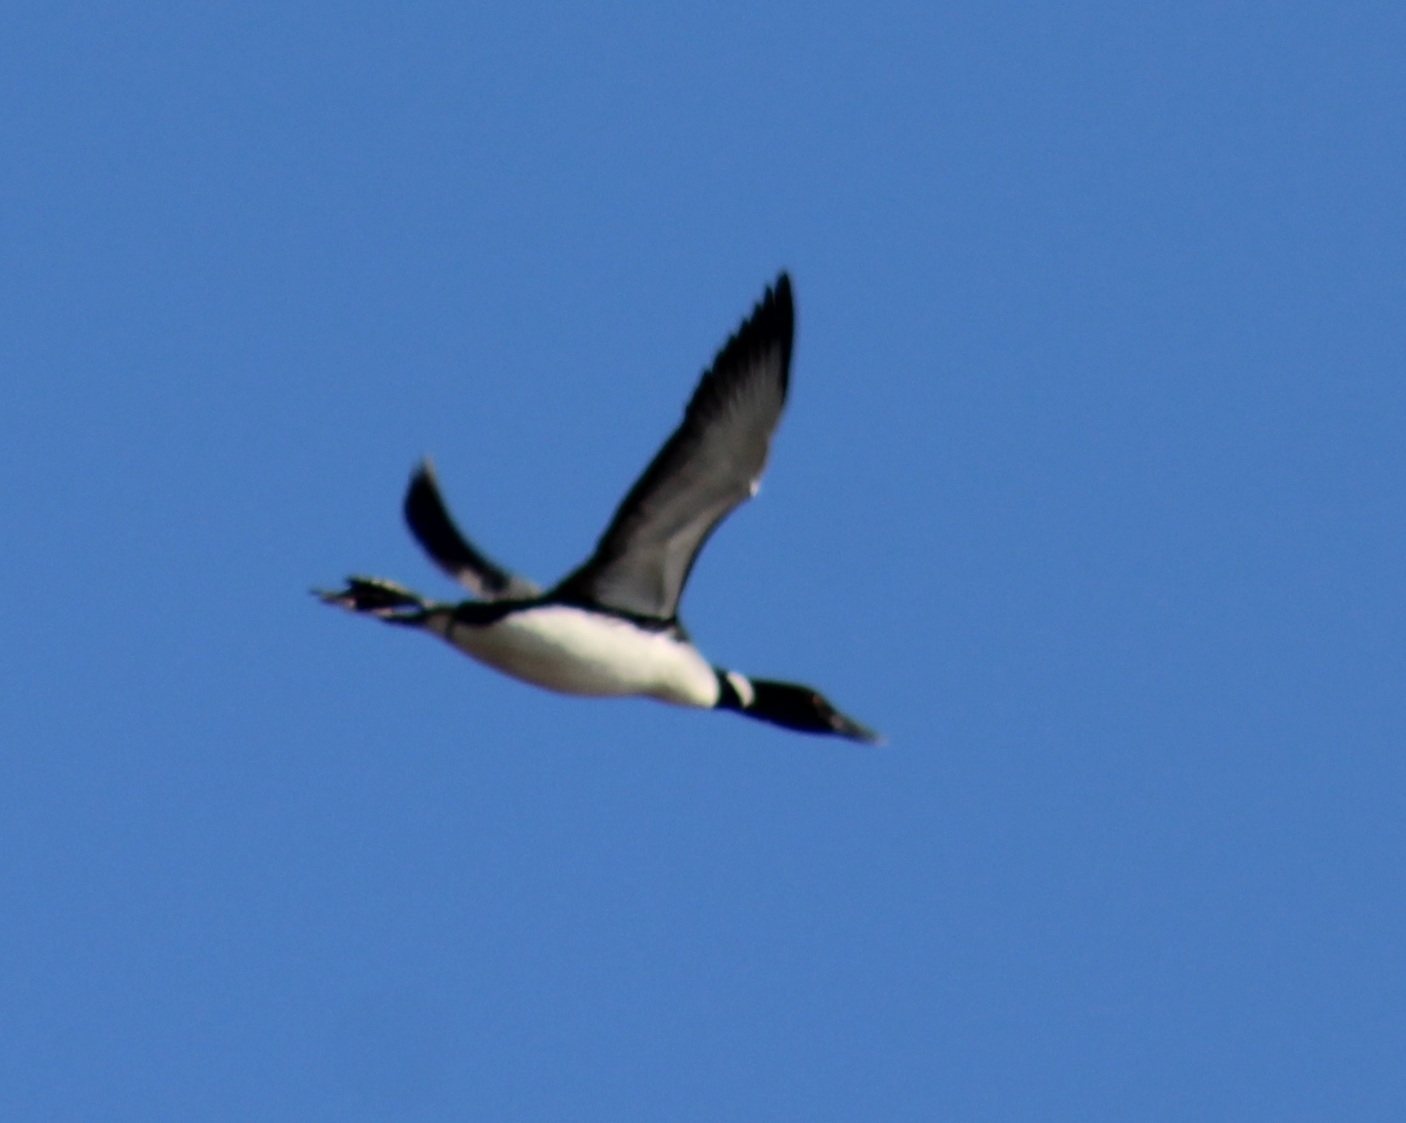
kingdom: Animalia
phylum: Chordata
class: Aves
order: Gaviiformes
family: Gaviidae
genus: Gavia
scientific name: Gavia immer
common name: Common loon
